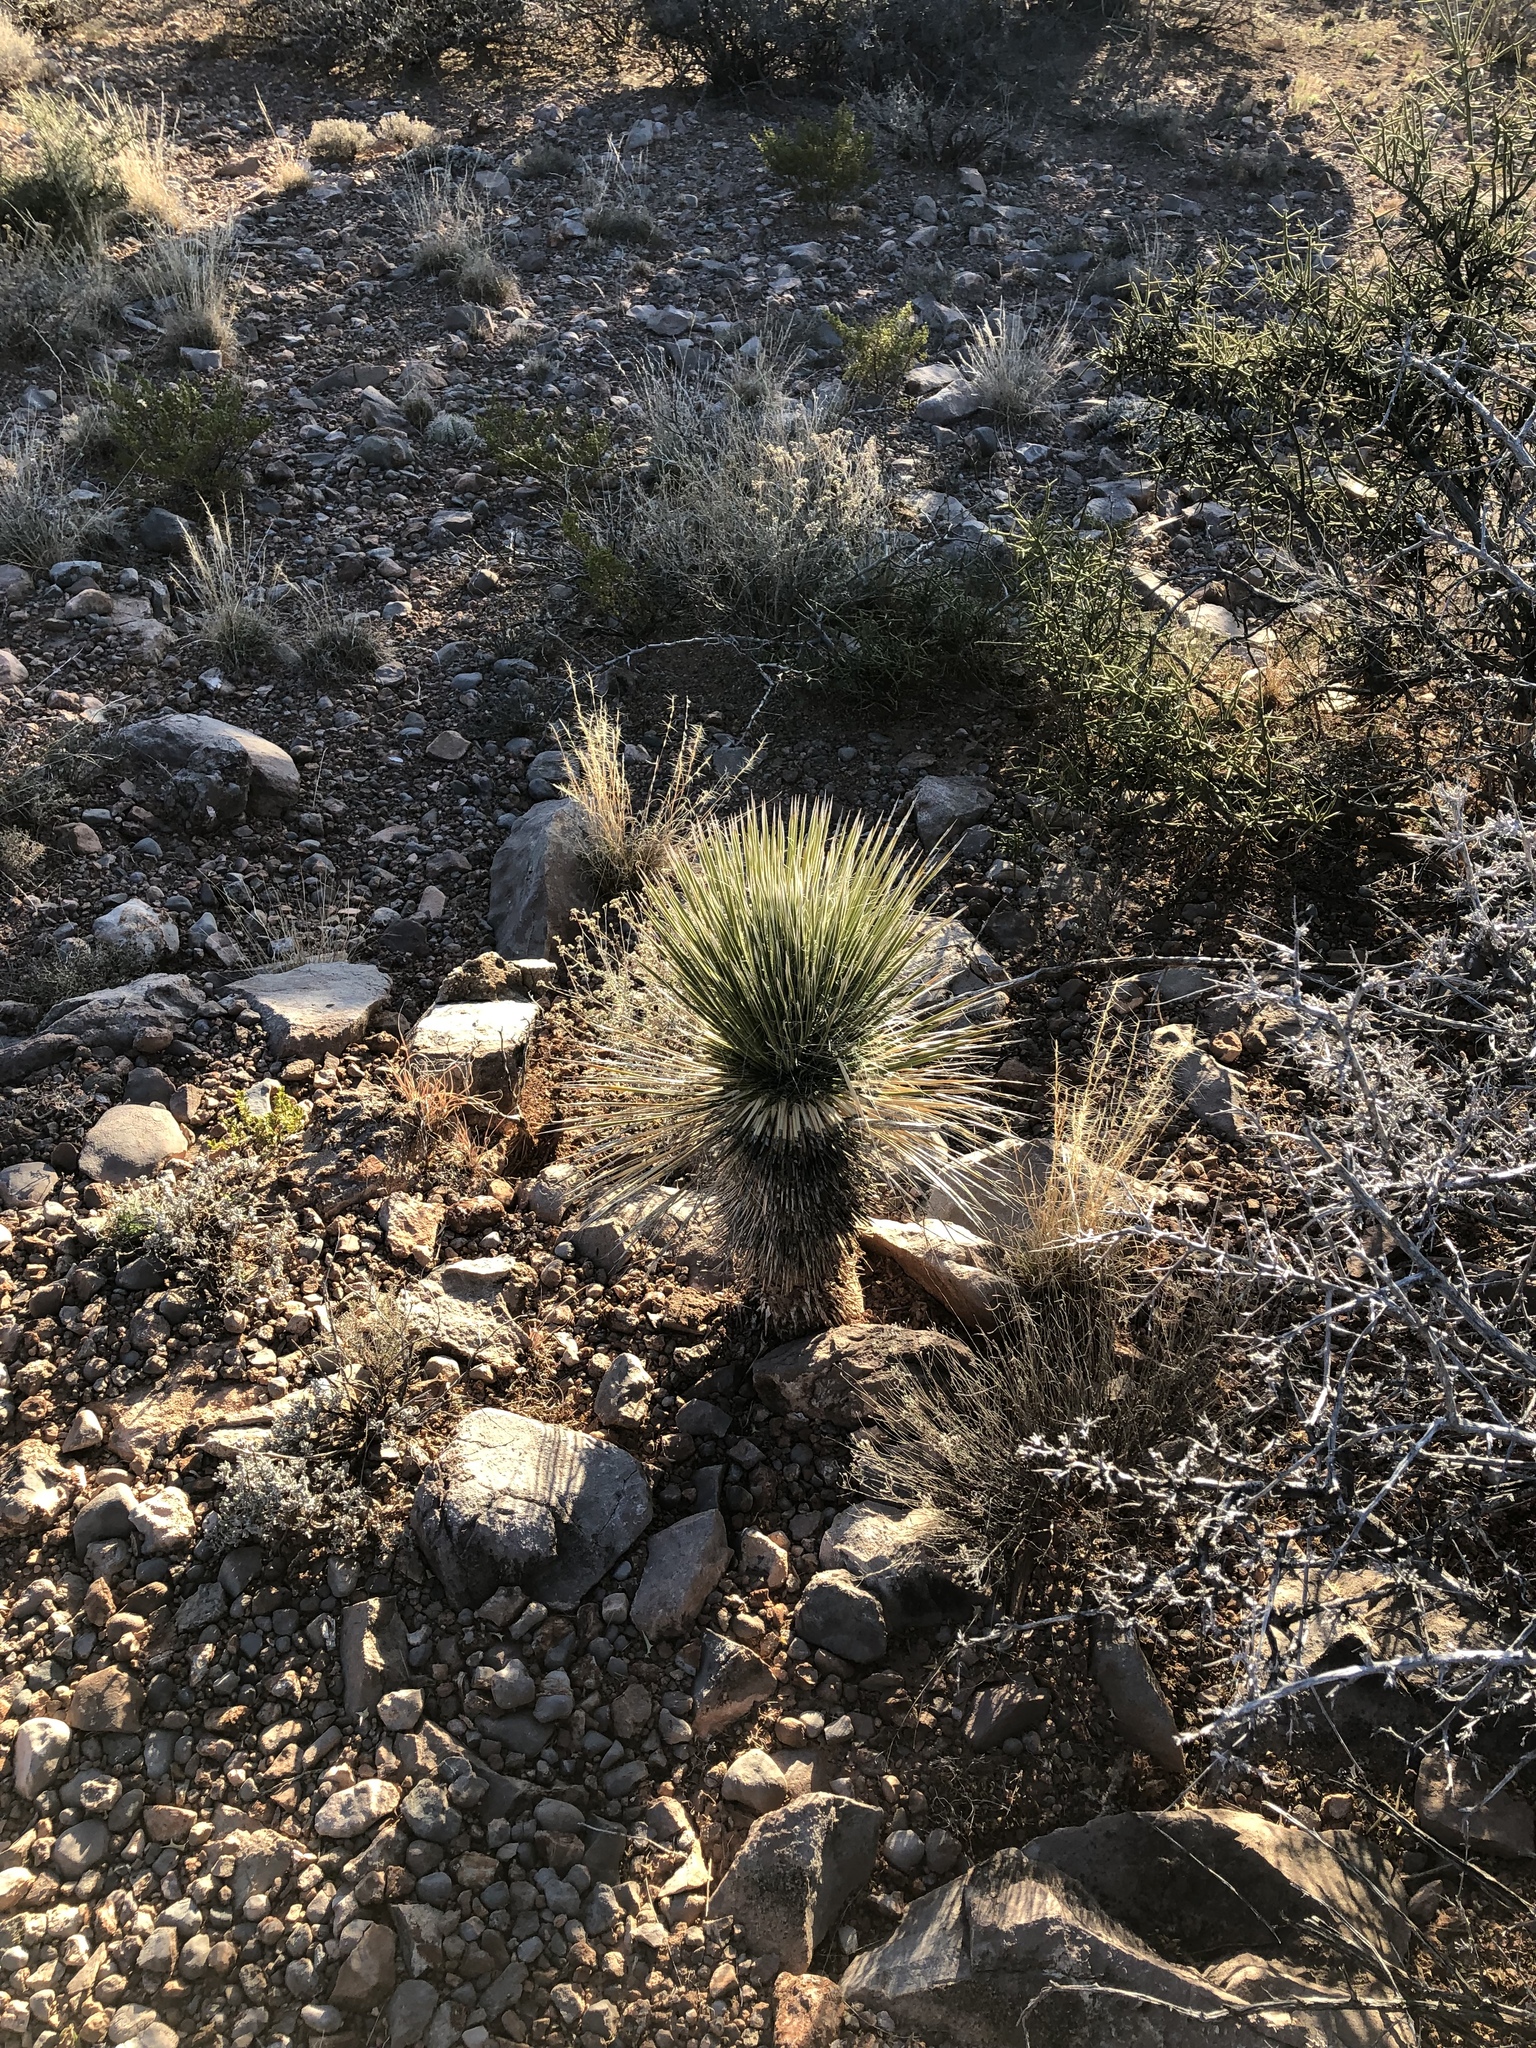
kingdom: Plantae
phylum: Tracheophyta
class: Liliopsida
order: Asparagales
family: Asparagaceae
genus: Yucca
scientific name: Yucca elata
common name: Palmella
